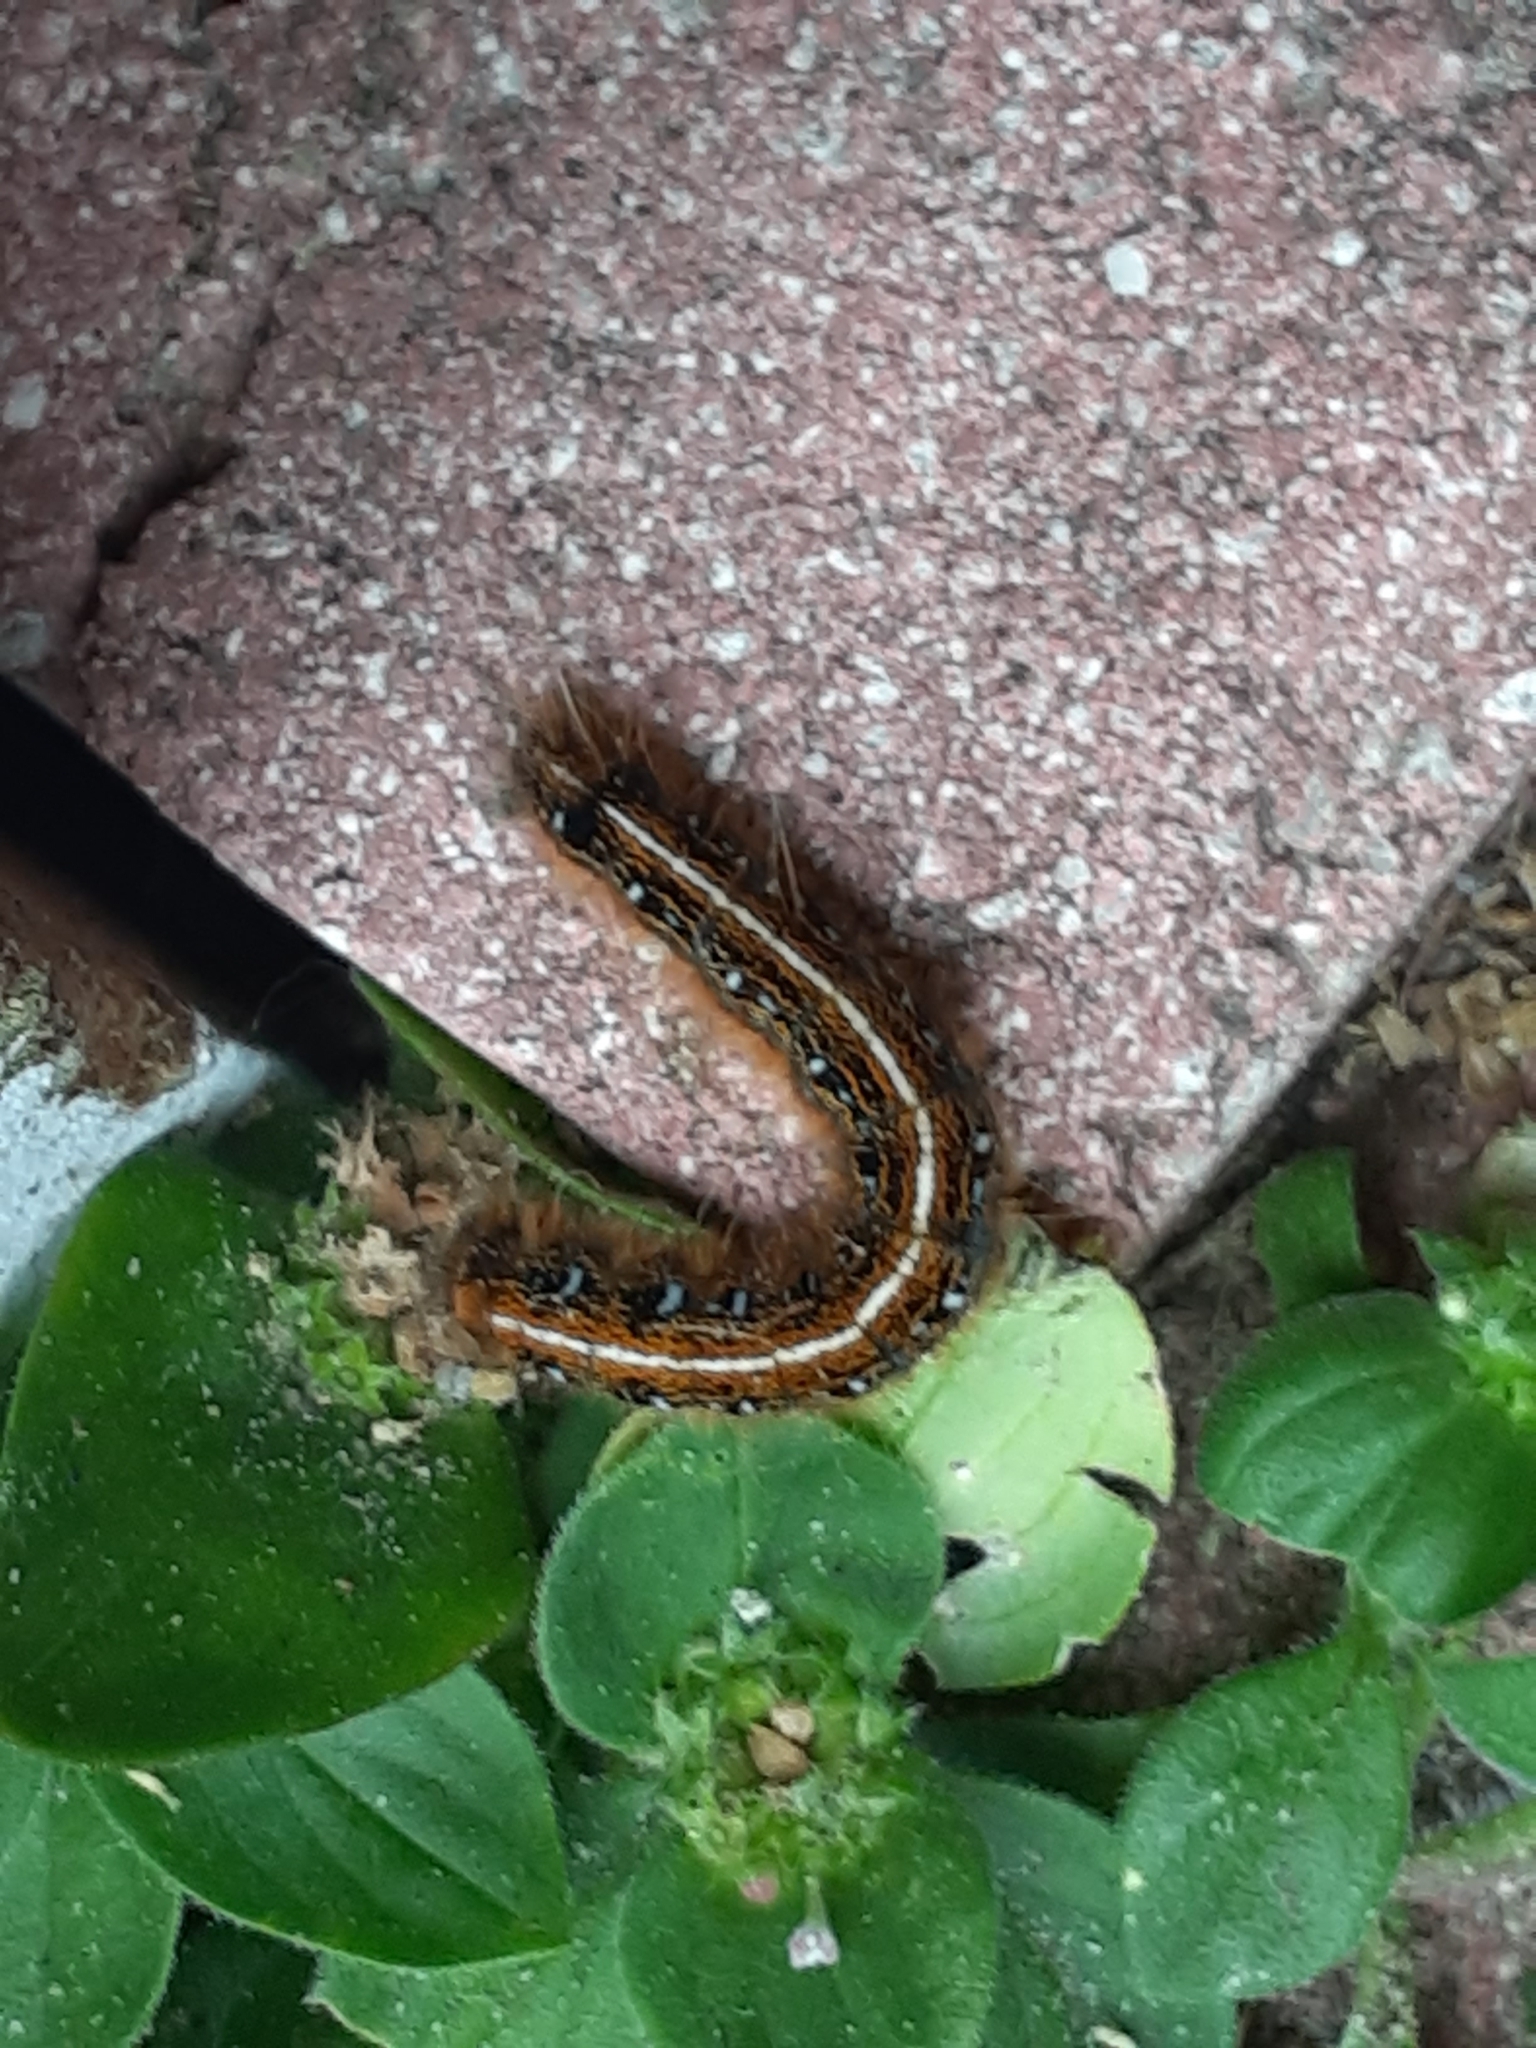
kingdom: Animalia
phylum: Arthropoda
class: Insecta
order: Lepidoptera
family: Lasiocampidae
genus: Malacosoma
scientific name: Malacosoma americana
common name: Eastern tent caterpillar moth
